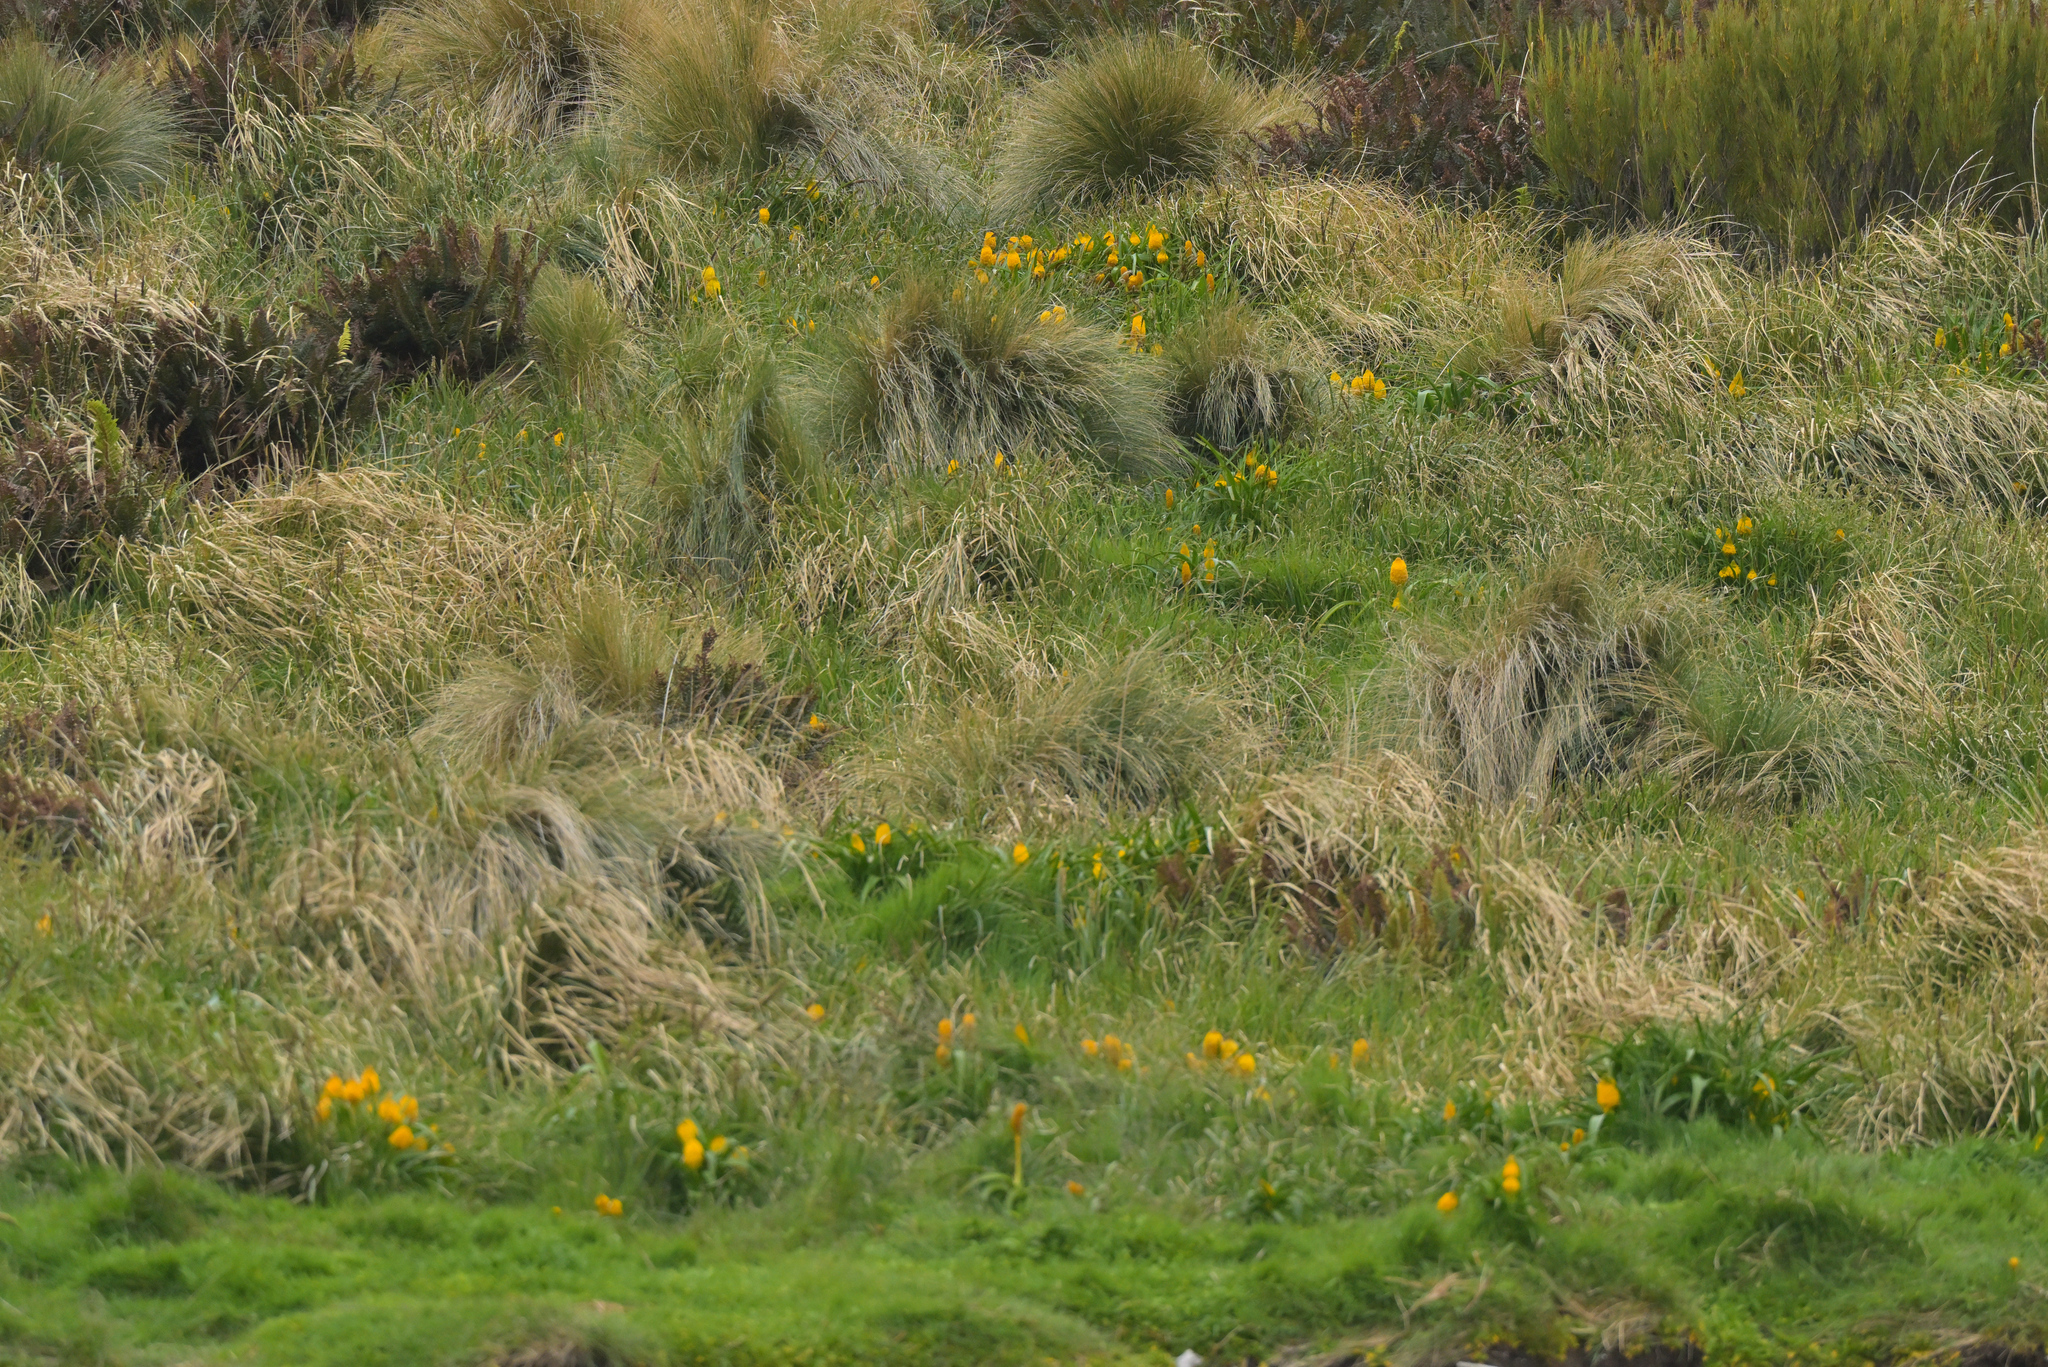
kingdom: Plantae
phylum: Tracheophyta
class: Liliopsida
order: Asparagales
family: Asphodelaceae
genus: Bulbinella
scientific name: Bulbinella rossii
